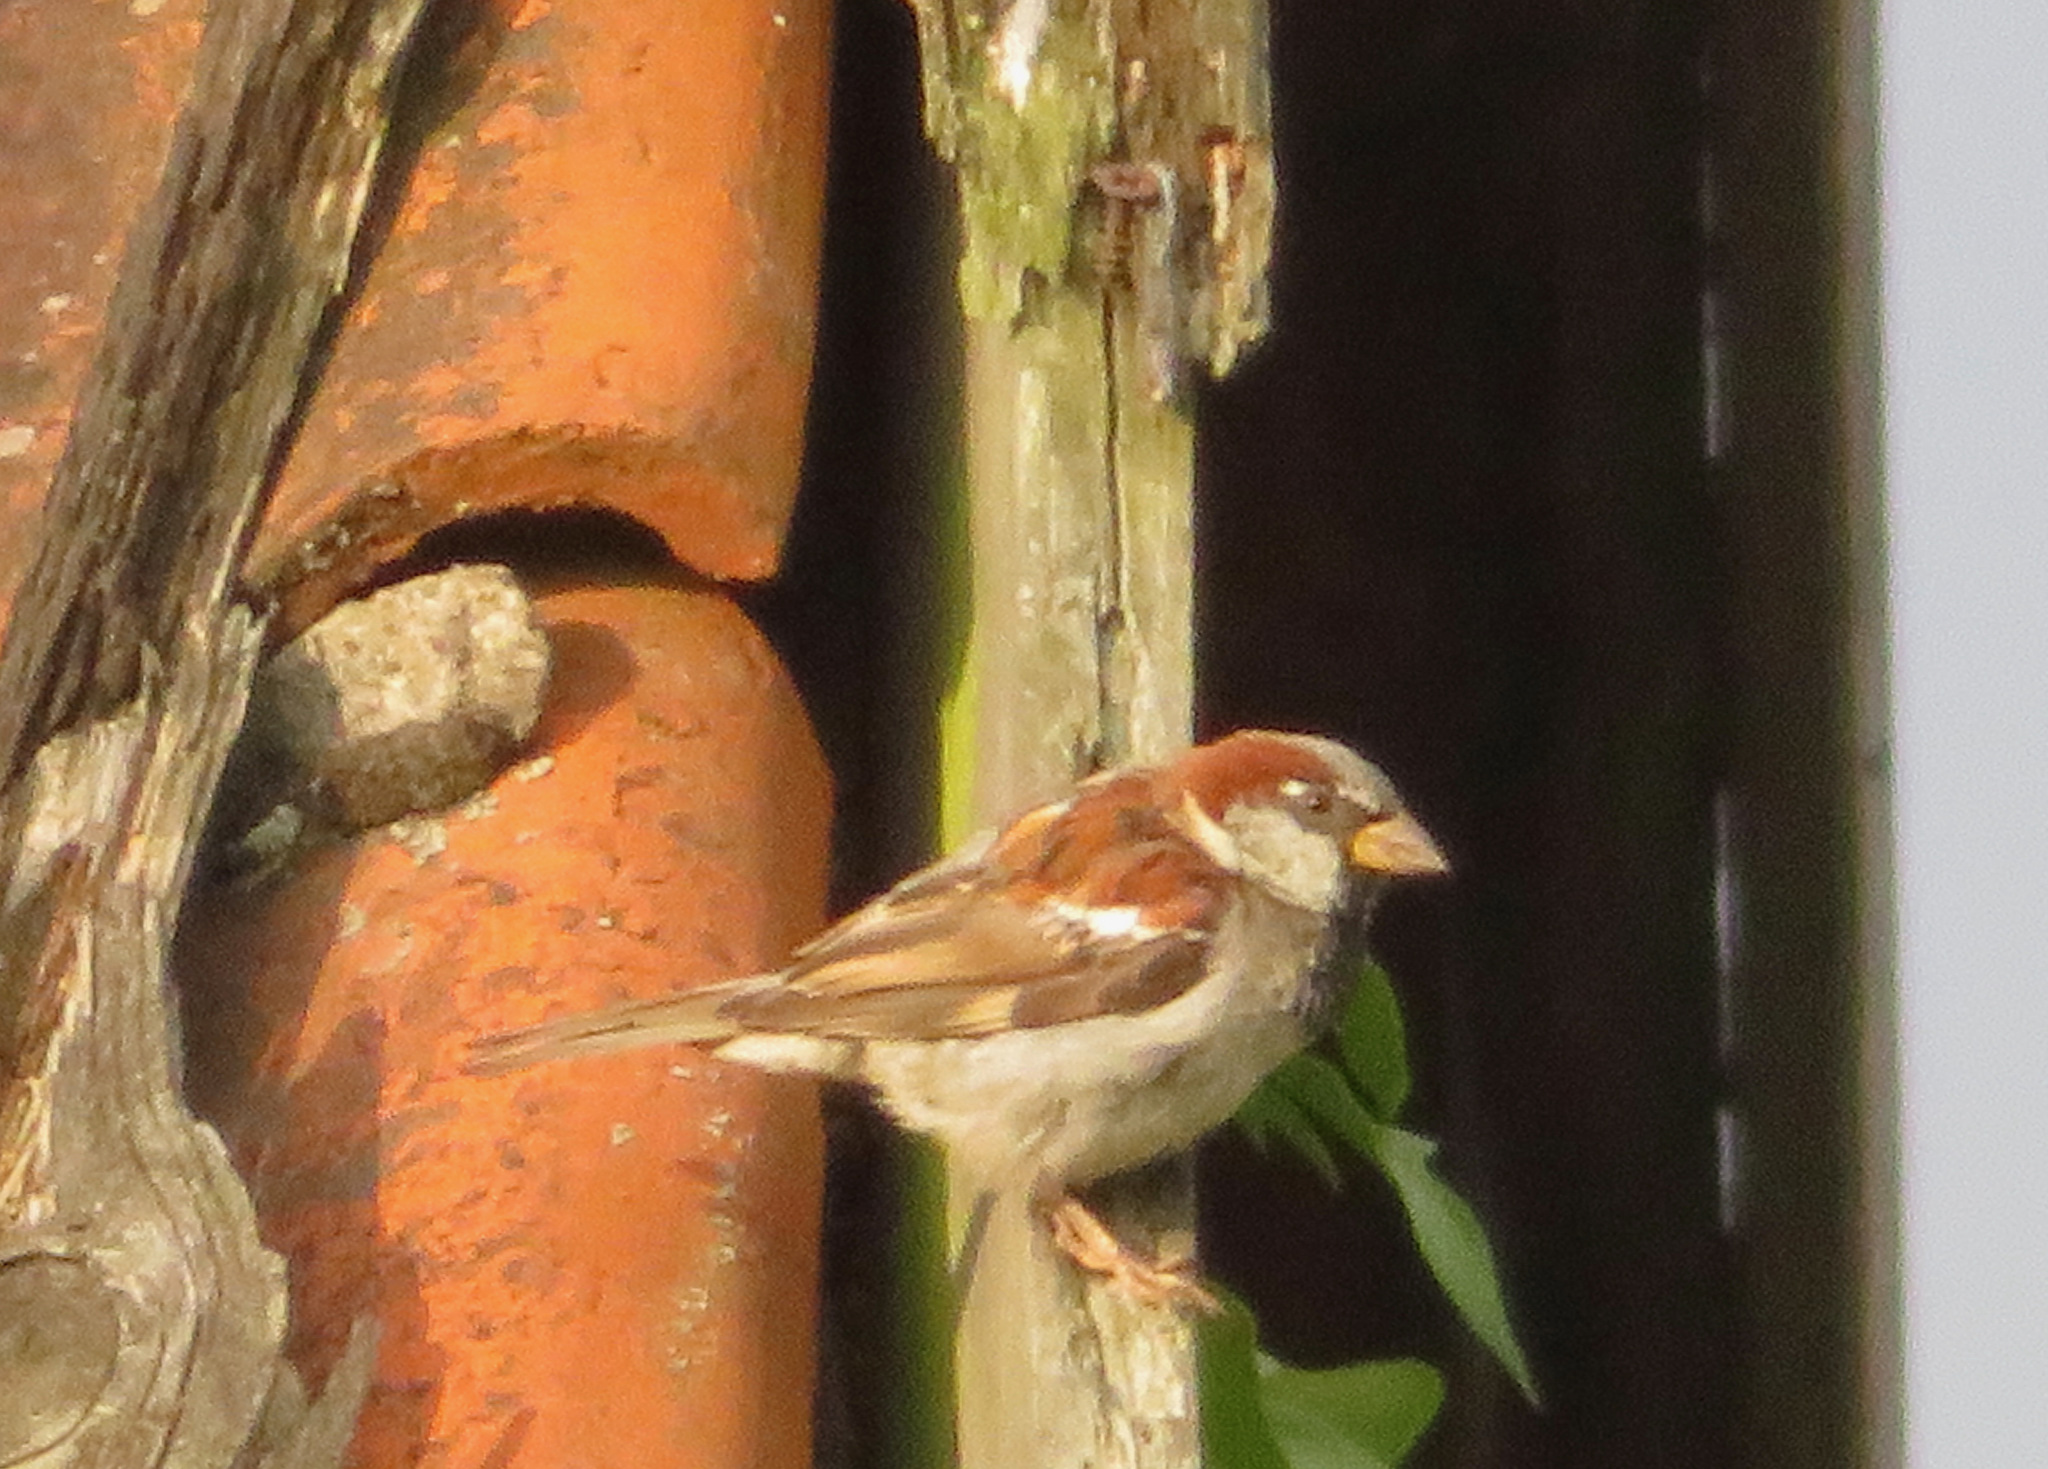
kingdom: Animalia
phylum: Chordata
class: Aves
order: Passeriformes
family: Passeridae
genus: Passer
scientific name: Passer domesticus
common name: House sparrow
